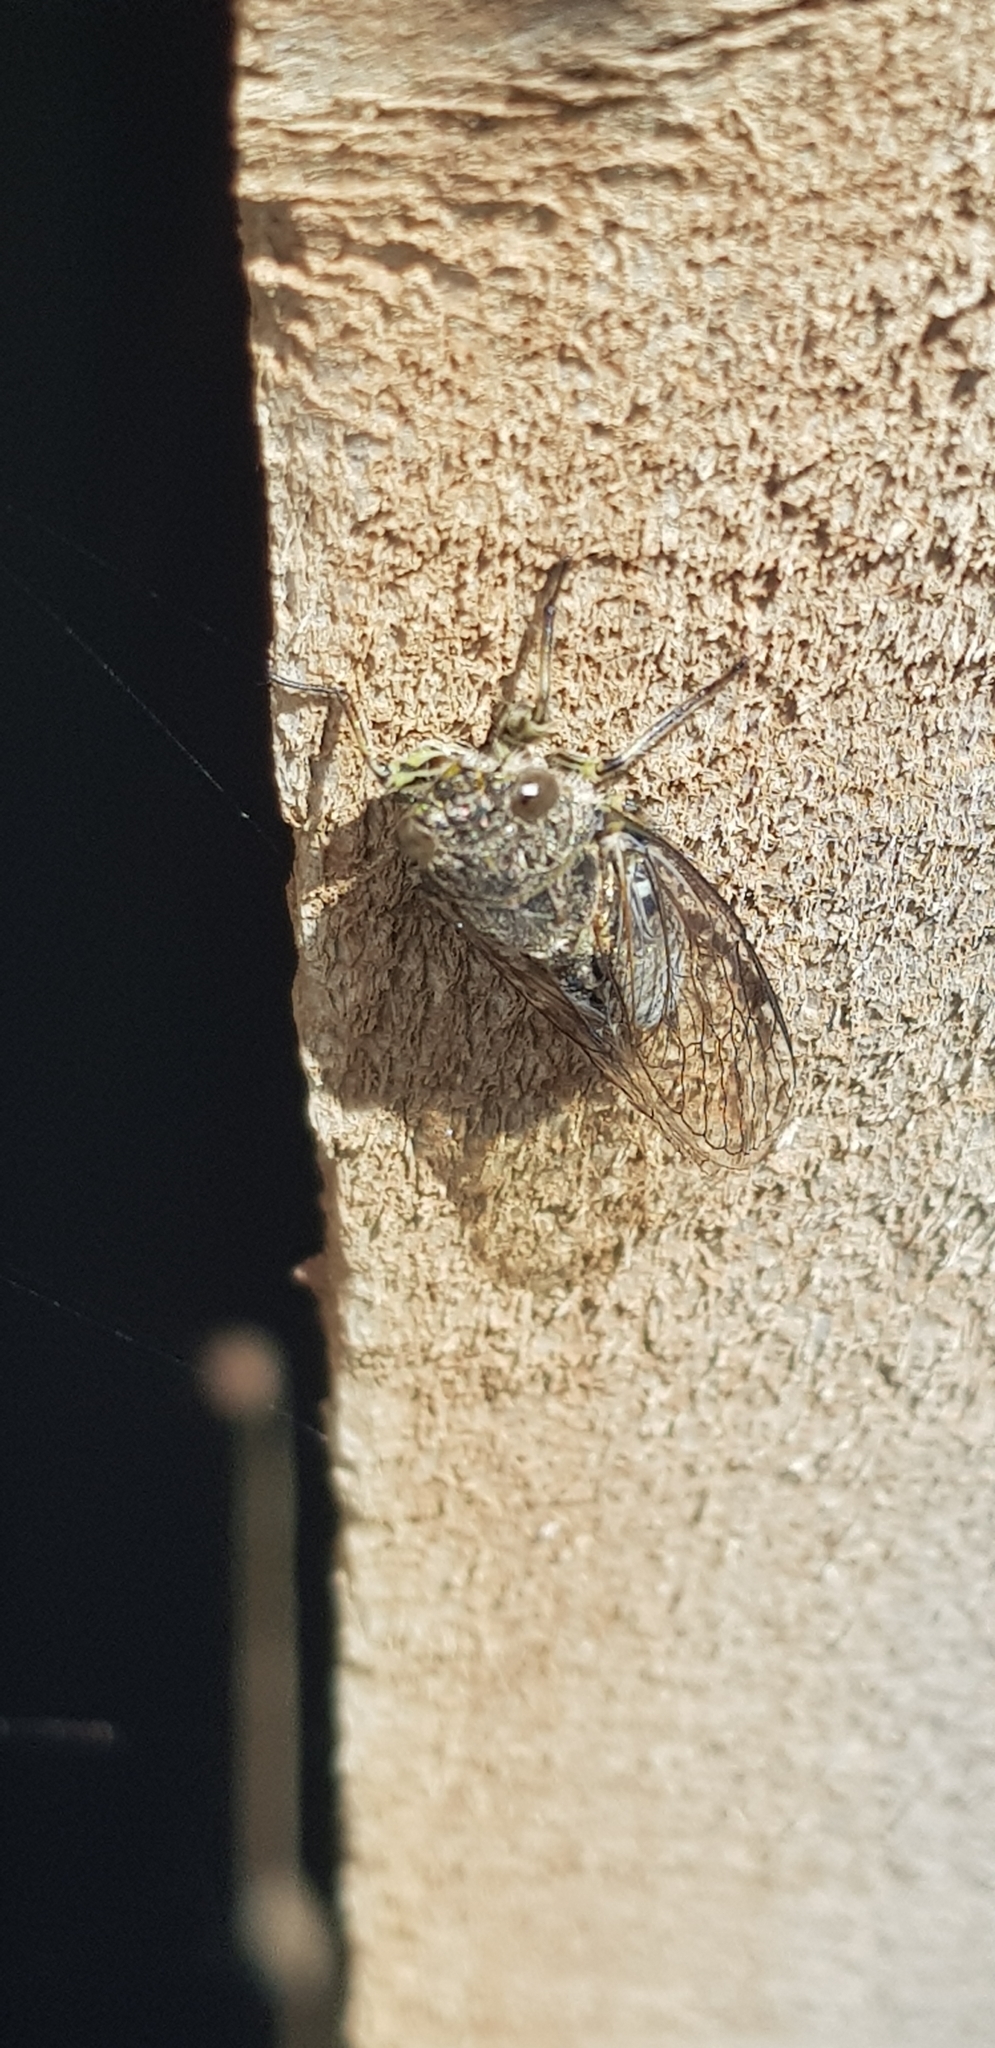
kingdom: Animalia
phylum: Arthropoda
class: Insecta
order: Hemiptera
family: Cicadidae
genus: Notopsalta
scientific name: Notopsalta sericea
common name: Clay bank cicada
